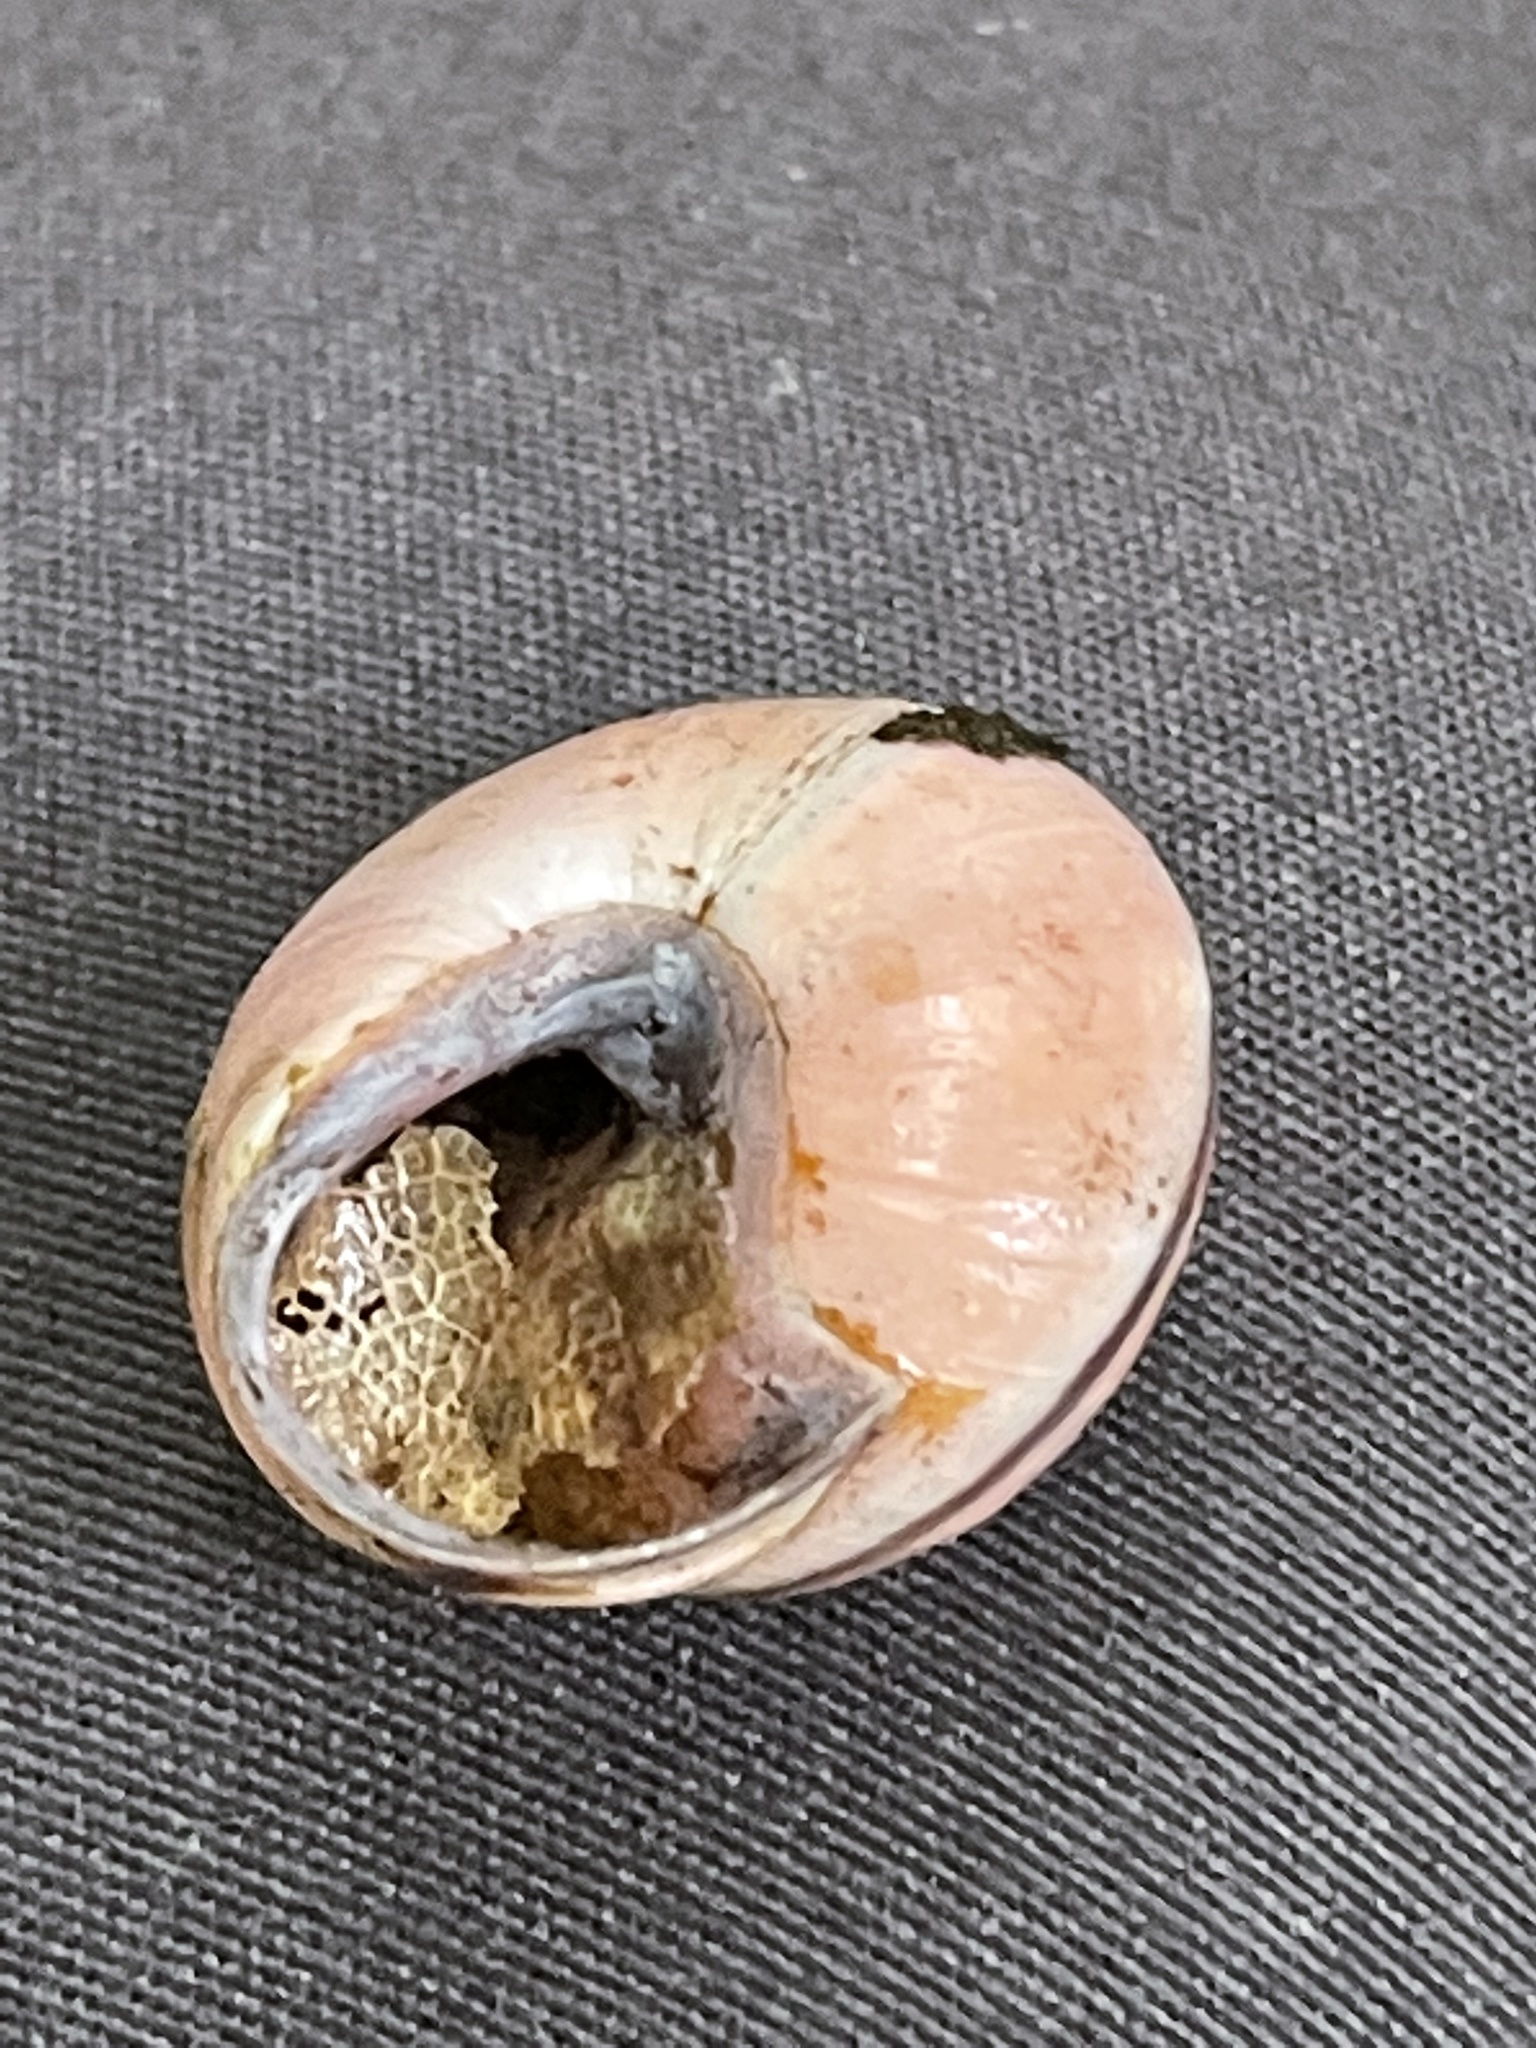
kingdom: Animalia
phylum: Mollusca
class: Gastropoda
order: Stylommatophora
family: Helicidae
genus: Cepaea
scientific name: Cepaea nemoralis
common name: Grovesnail
